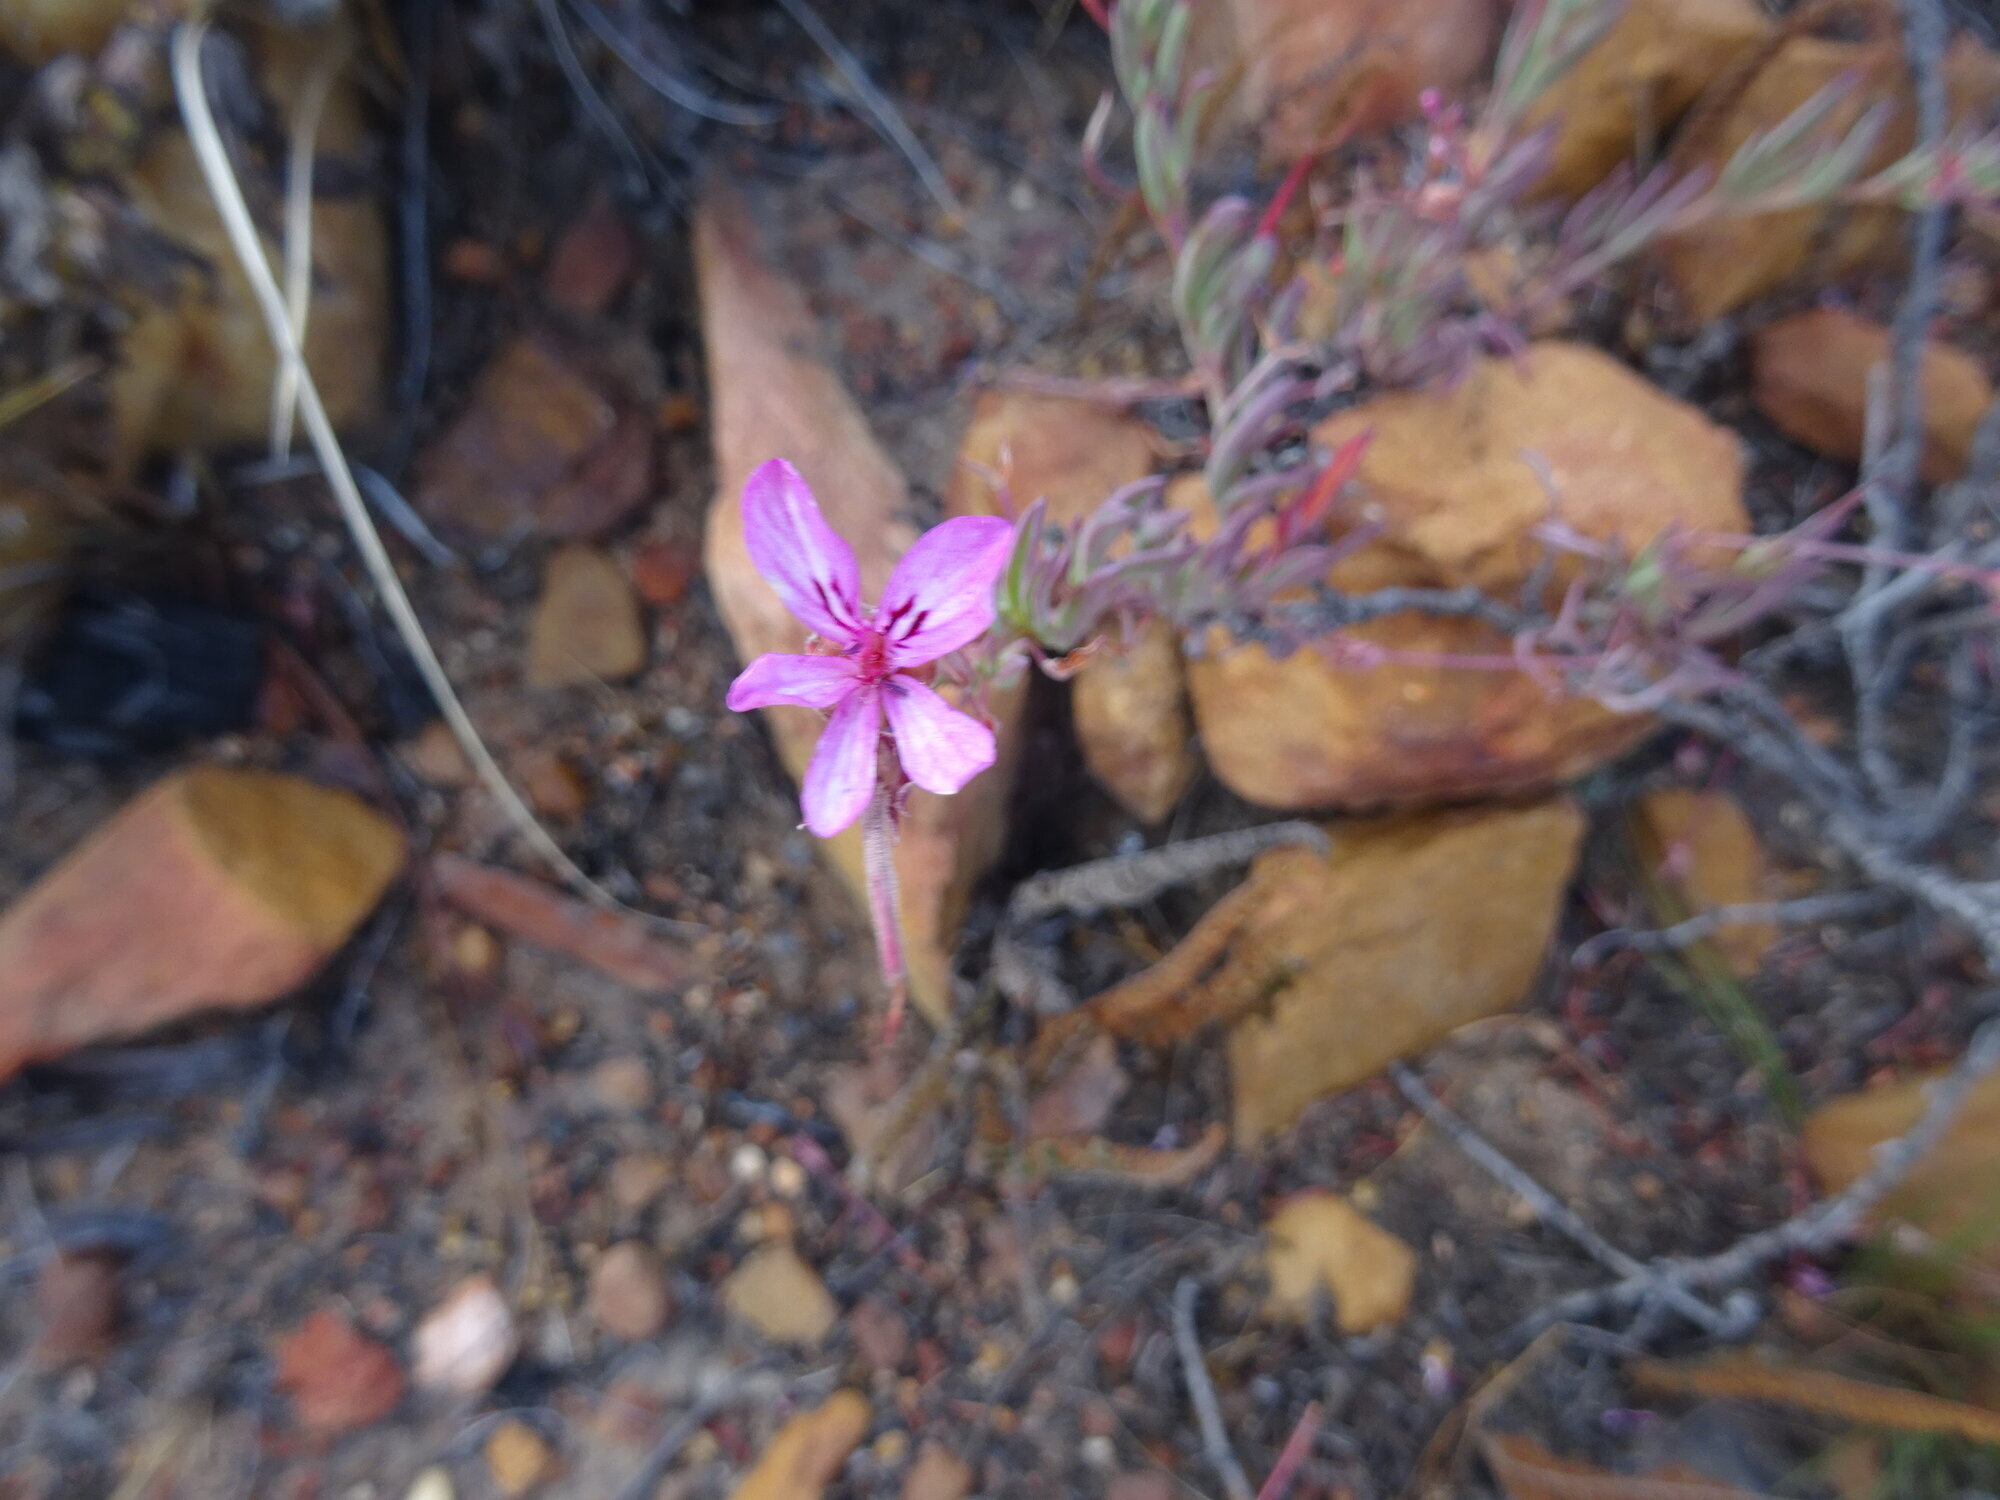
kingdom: Plantae
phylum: Tracheophyta
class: Magnoliopsida
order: Geraniales
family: Geraniaceae
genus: Pelargonium
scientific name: Pelargonium laevigatum
